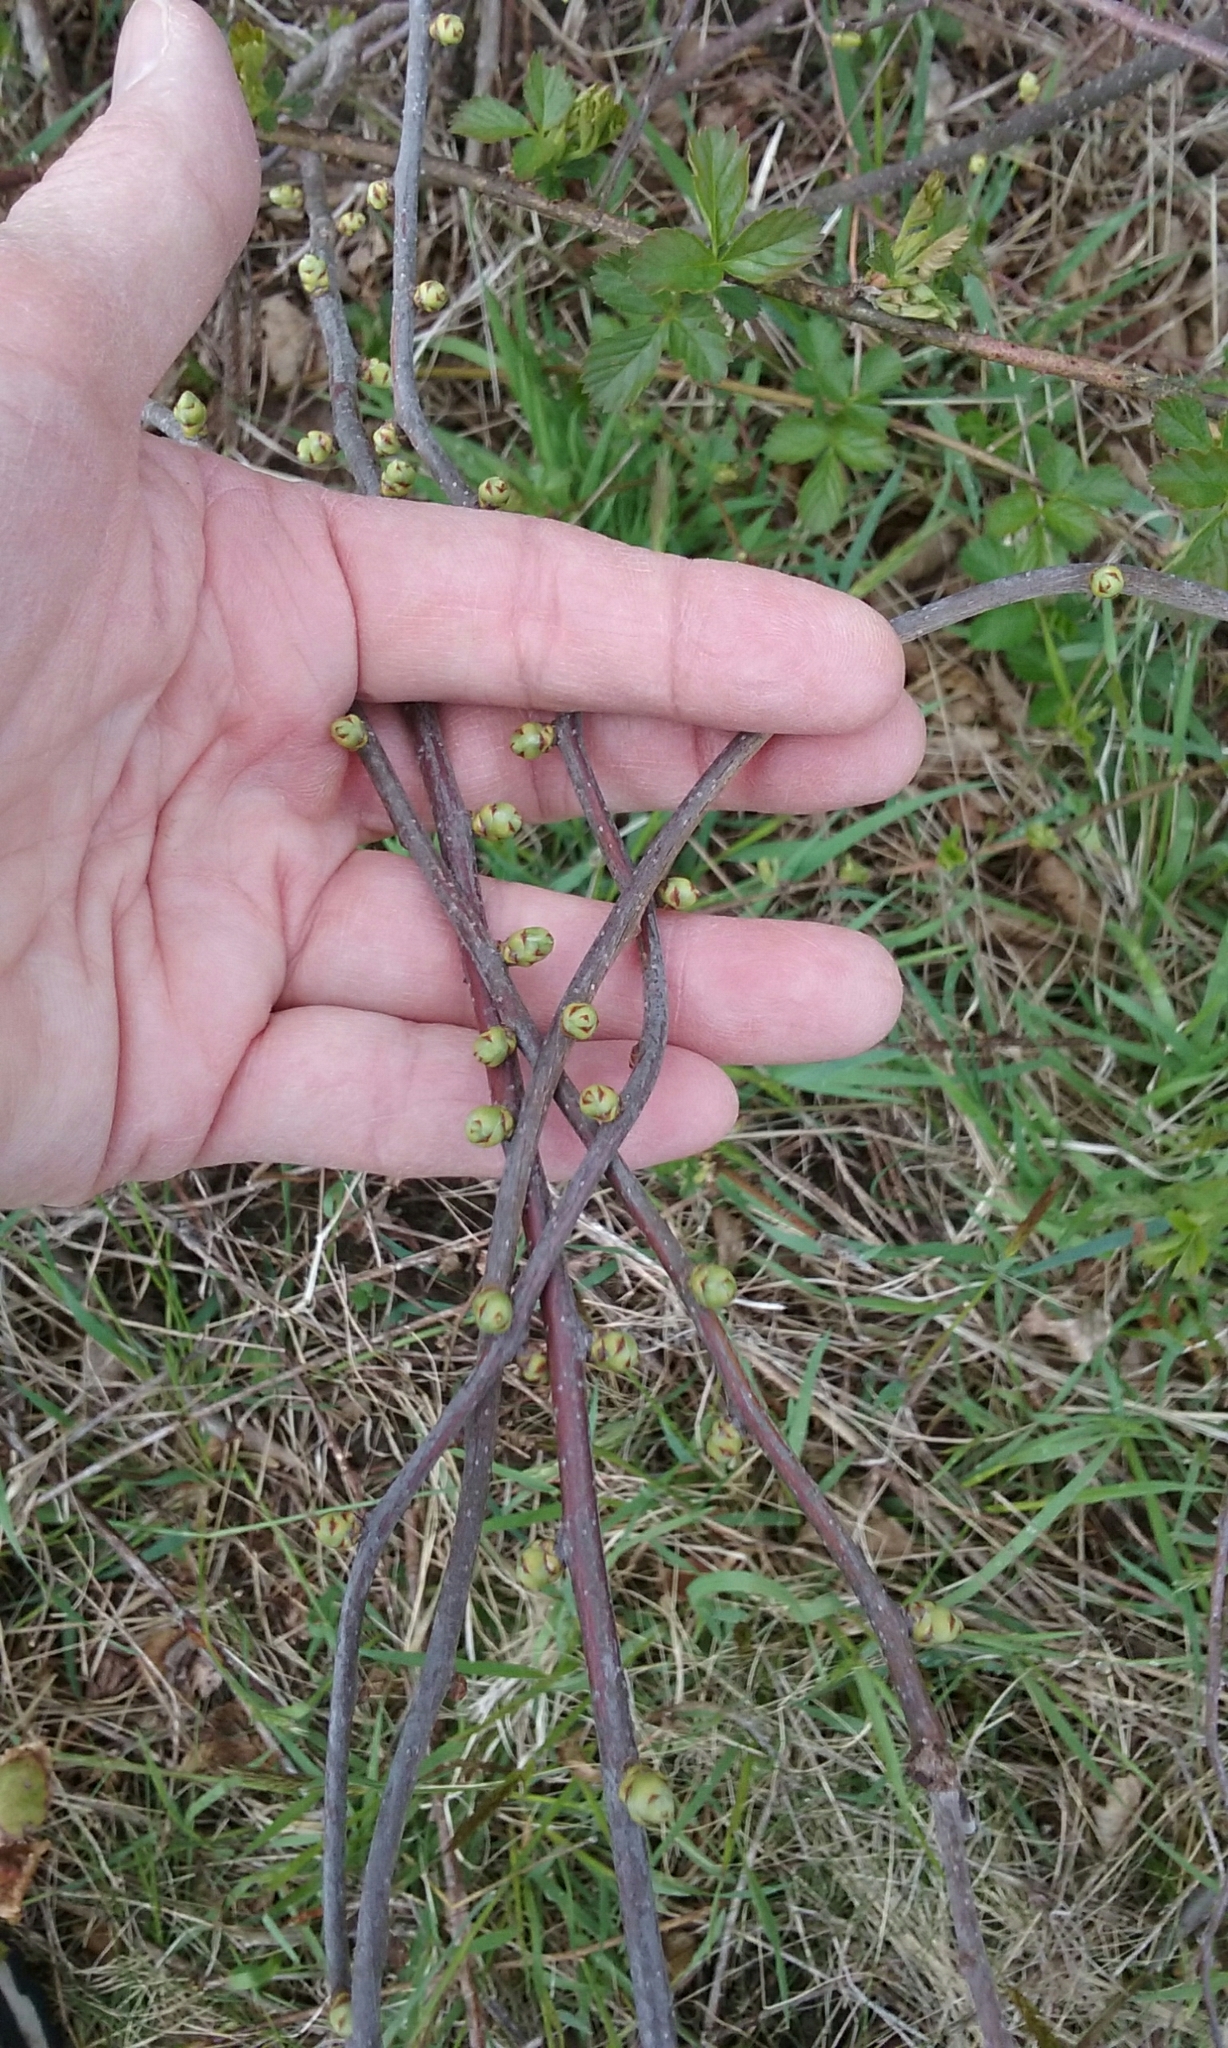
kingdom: Plantae
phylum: Tracheophyta
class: Magnoliopsida
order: Celastrales
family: Celastraceae
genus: Celastrus
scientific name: Celastrus orbiculatus
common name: Oriental bittersweet
